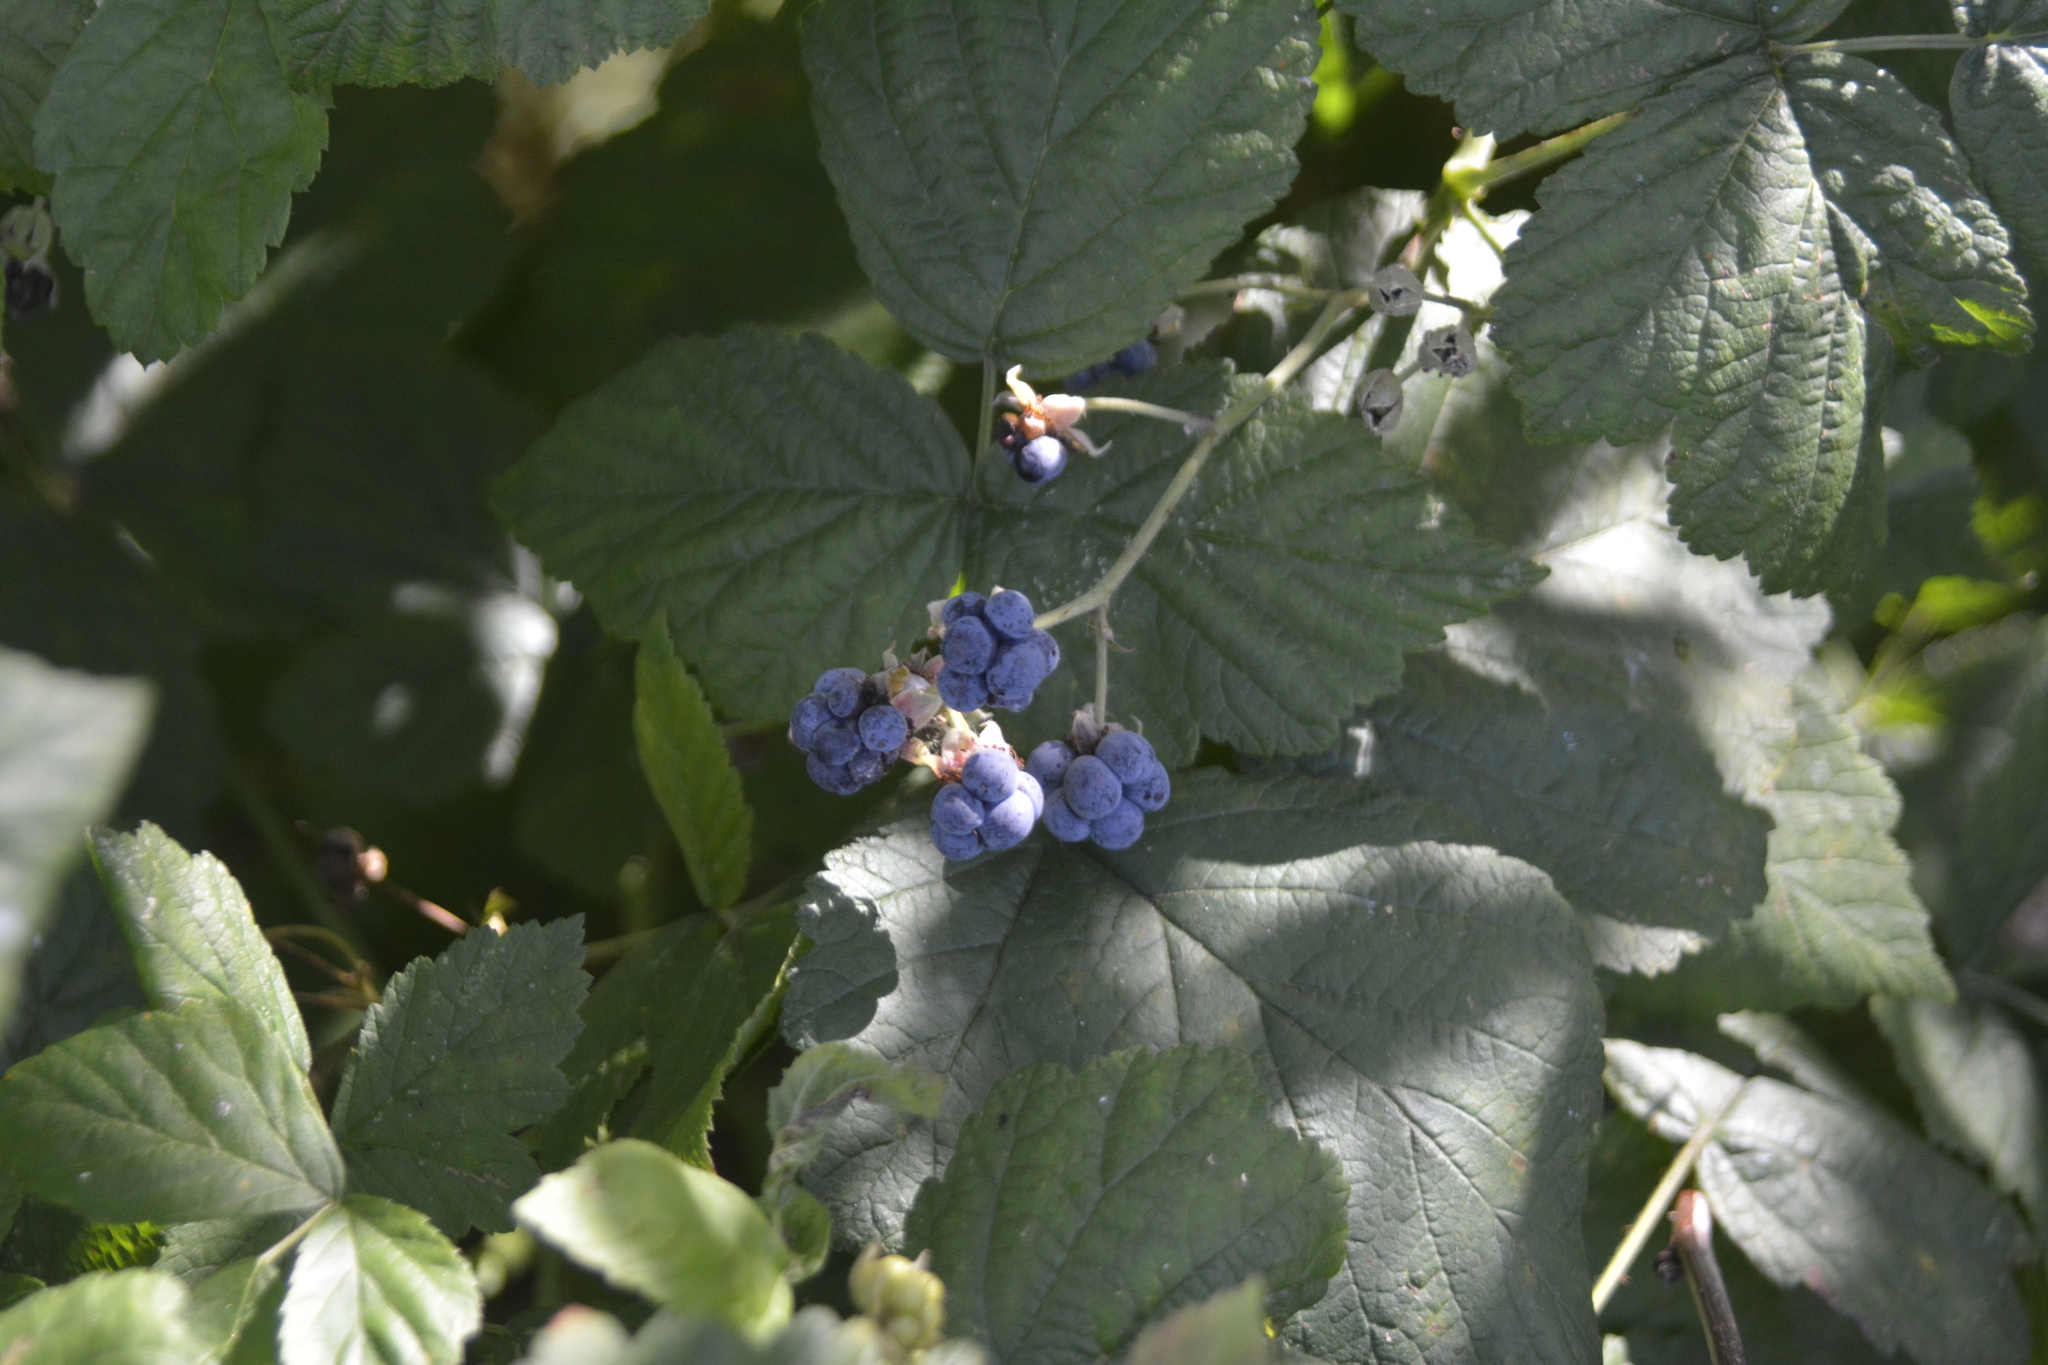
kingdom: Plantae
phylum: Tracheophyta
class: Magnoliopsida
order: Rosales
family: Rosaceae
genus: Rubus
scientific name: Rubus caesius
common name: Dewberry
